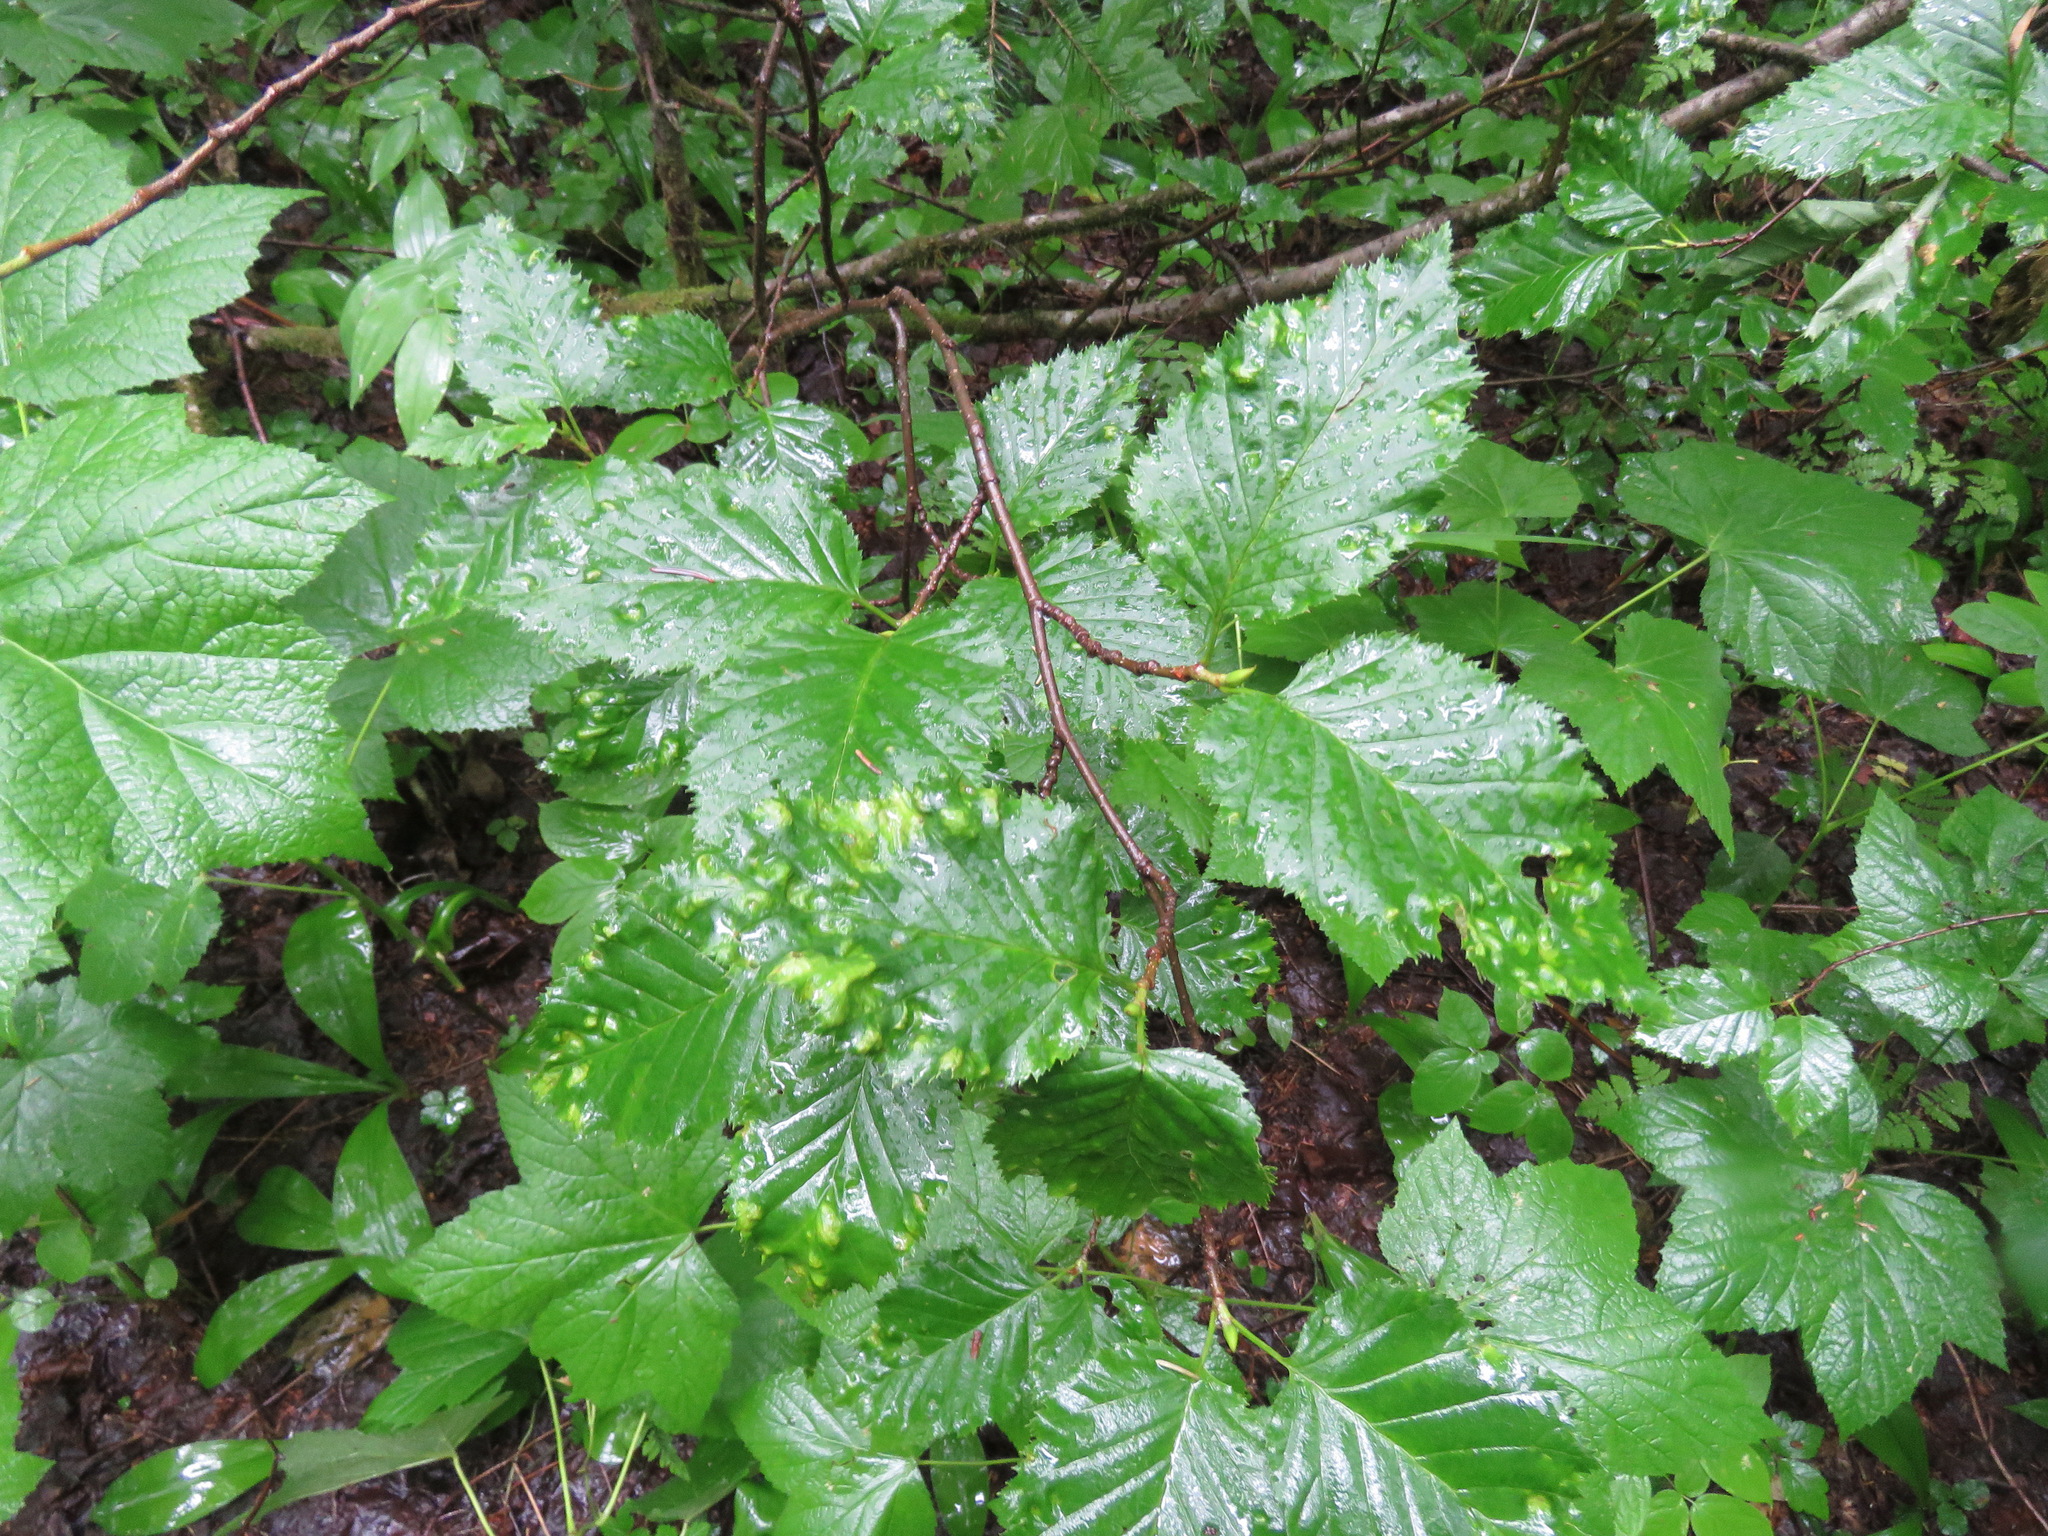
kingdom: Plantae
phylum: Tracheophyta
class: Magnoliopsida
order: Fagales
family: Betulaceae
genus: Alnus
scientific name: Alnus alnobetula
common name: Green alder
